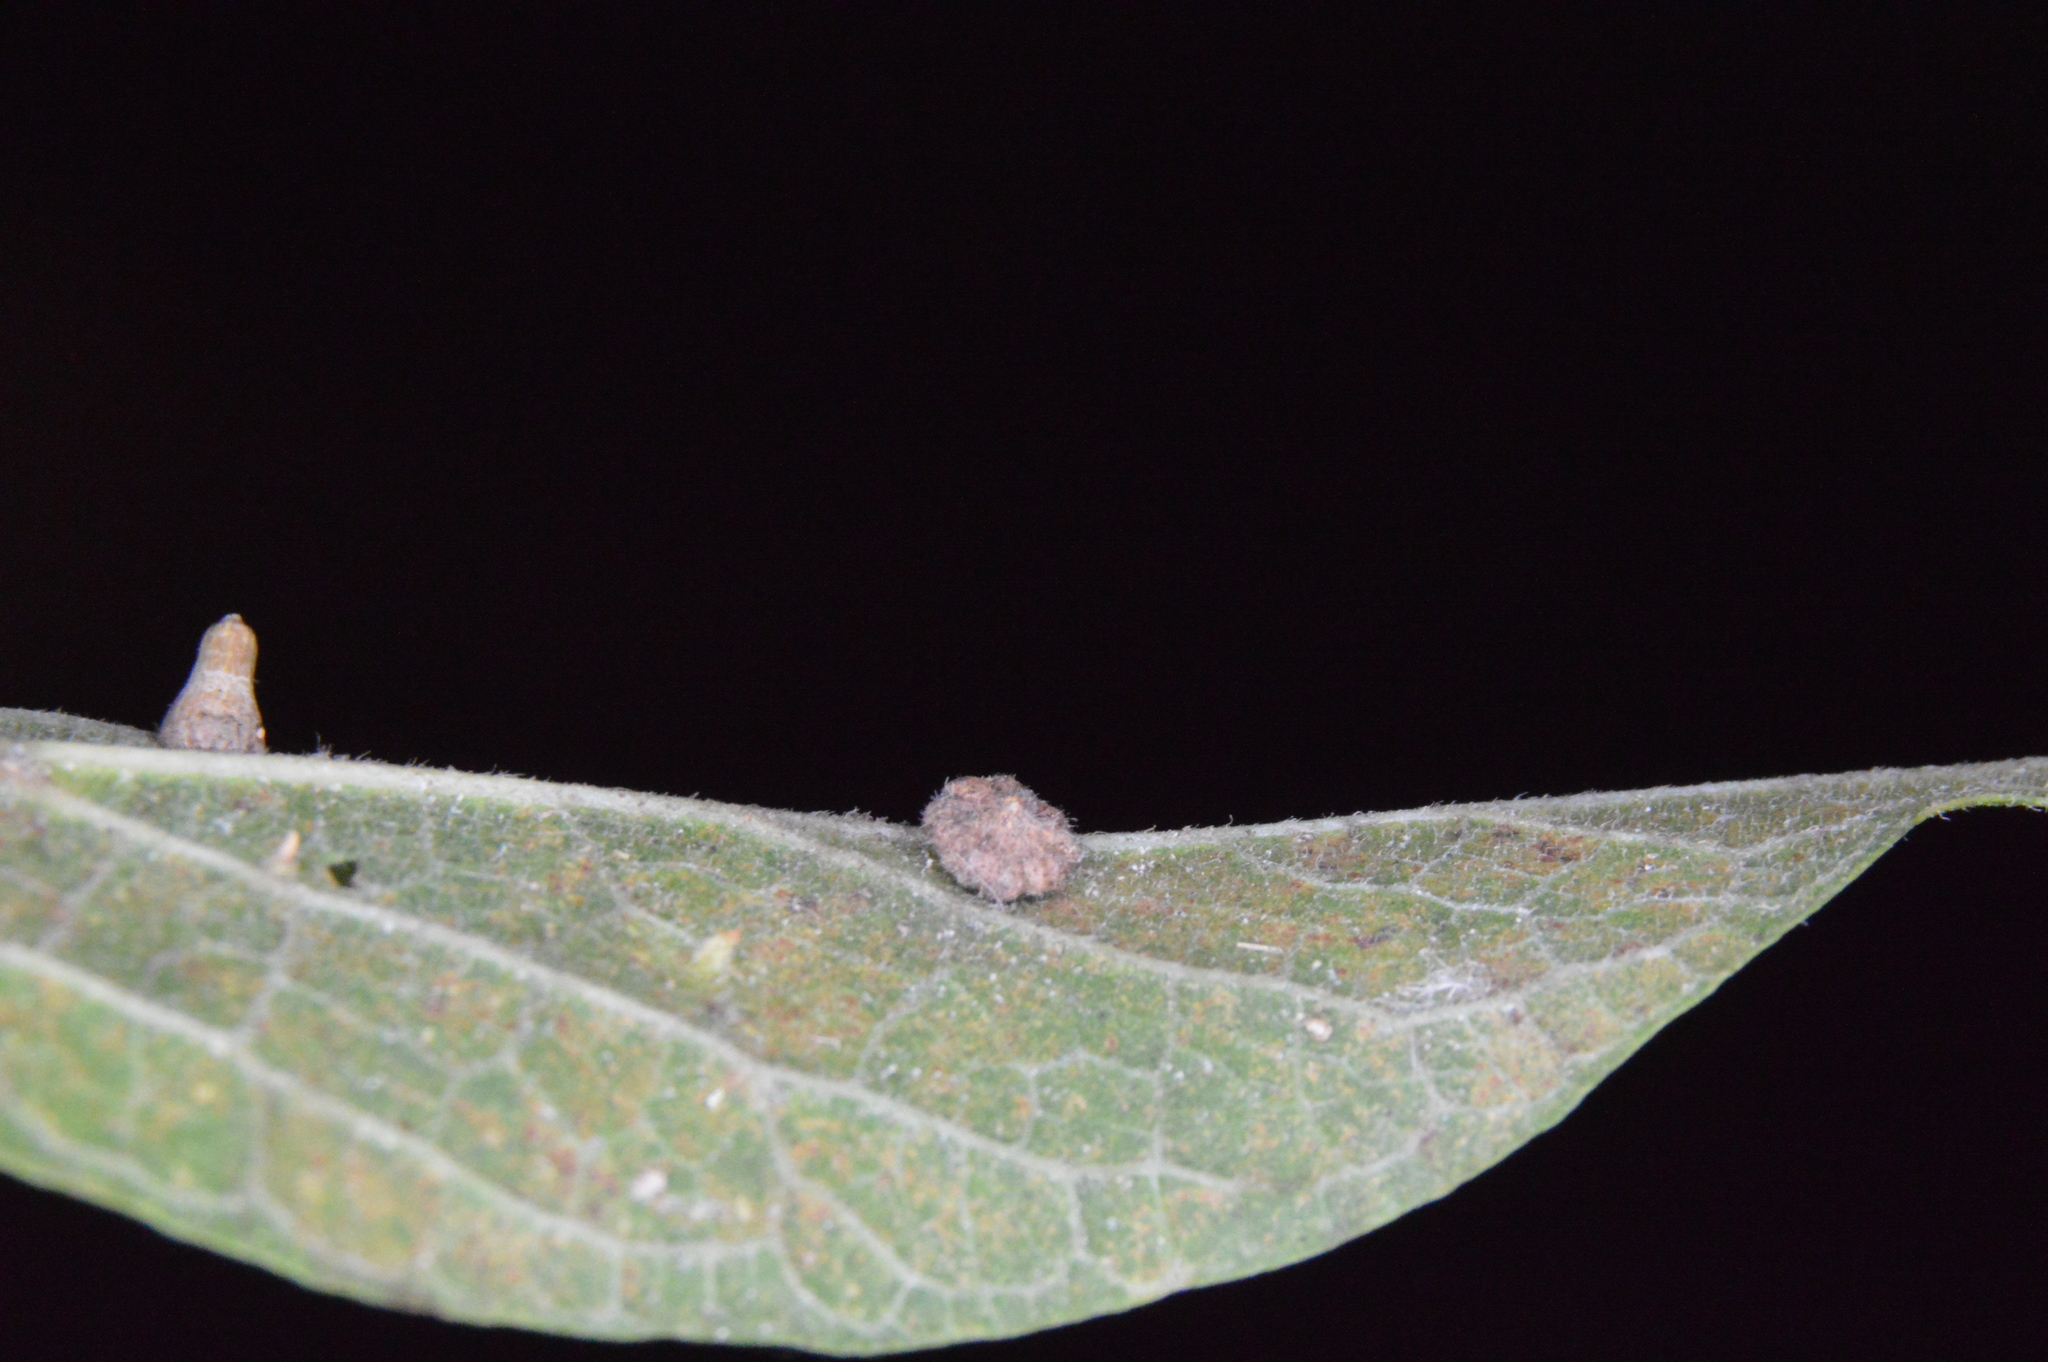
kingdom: Animalia
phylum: Arthropoda
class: Insecta
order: Diptera
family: Cecidomyiidae
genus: Celticecis
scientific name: Celticecis capsularis
